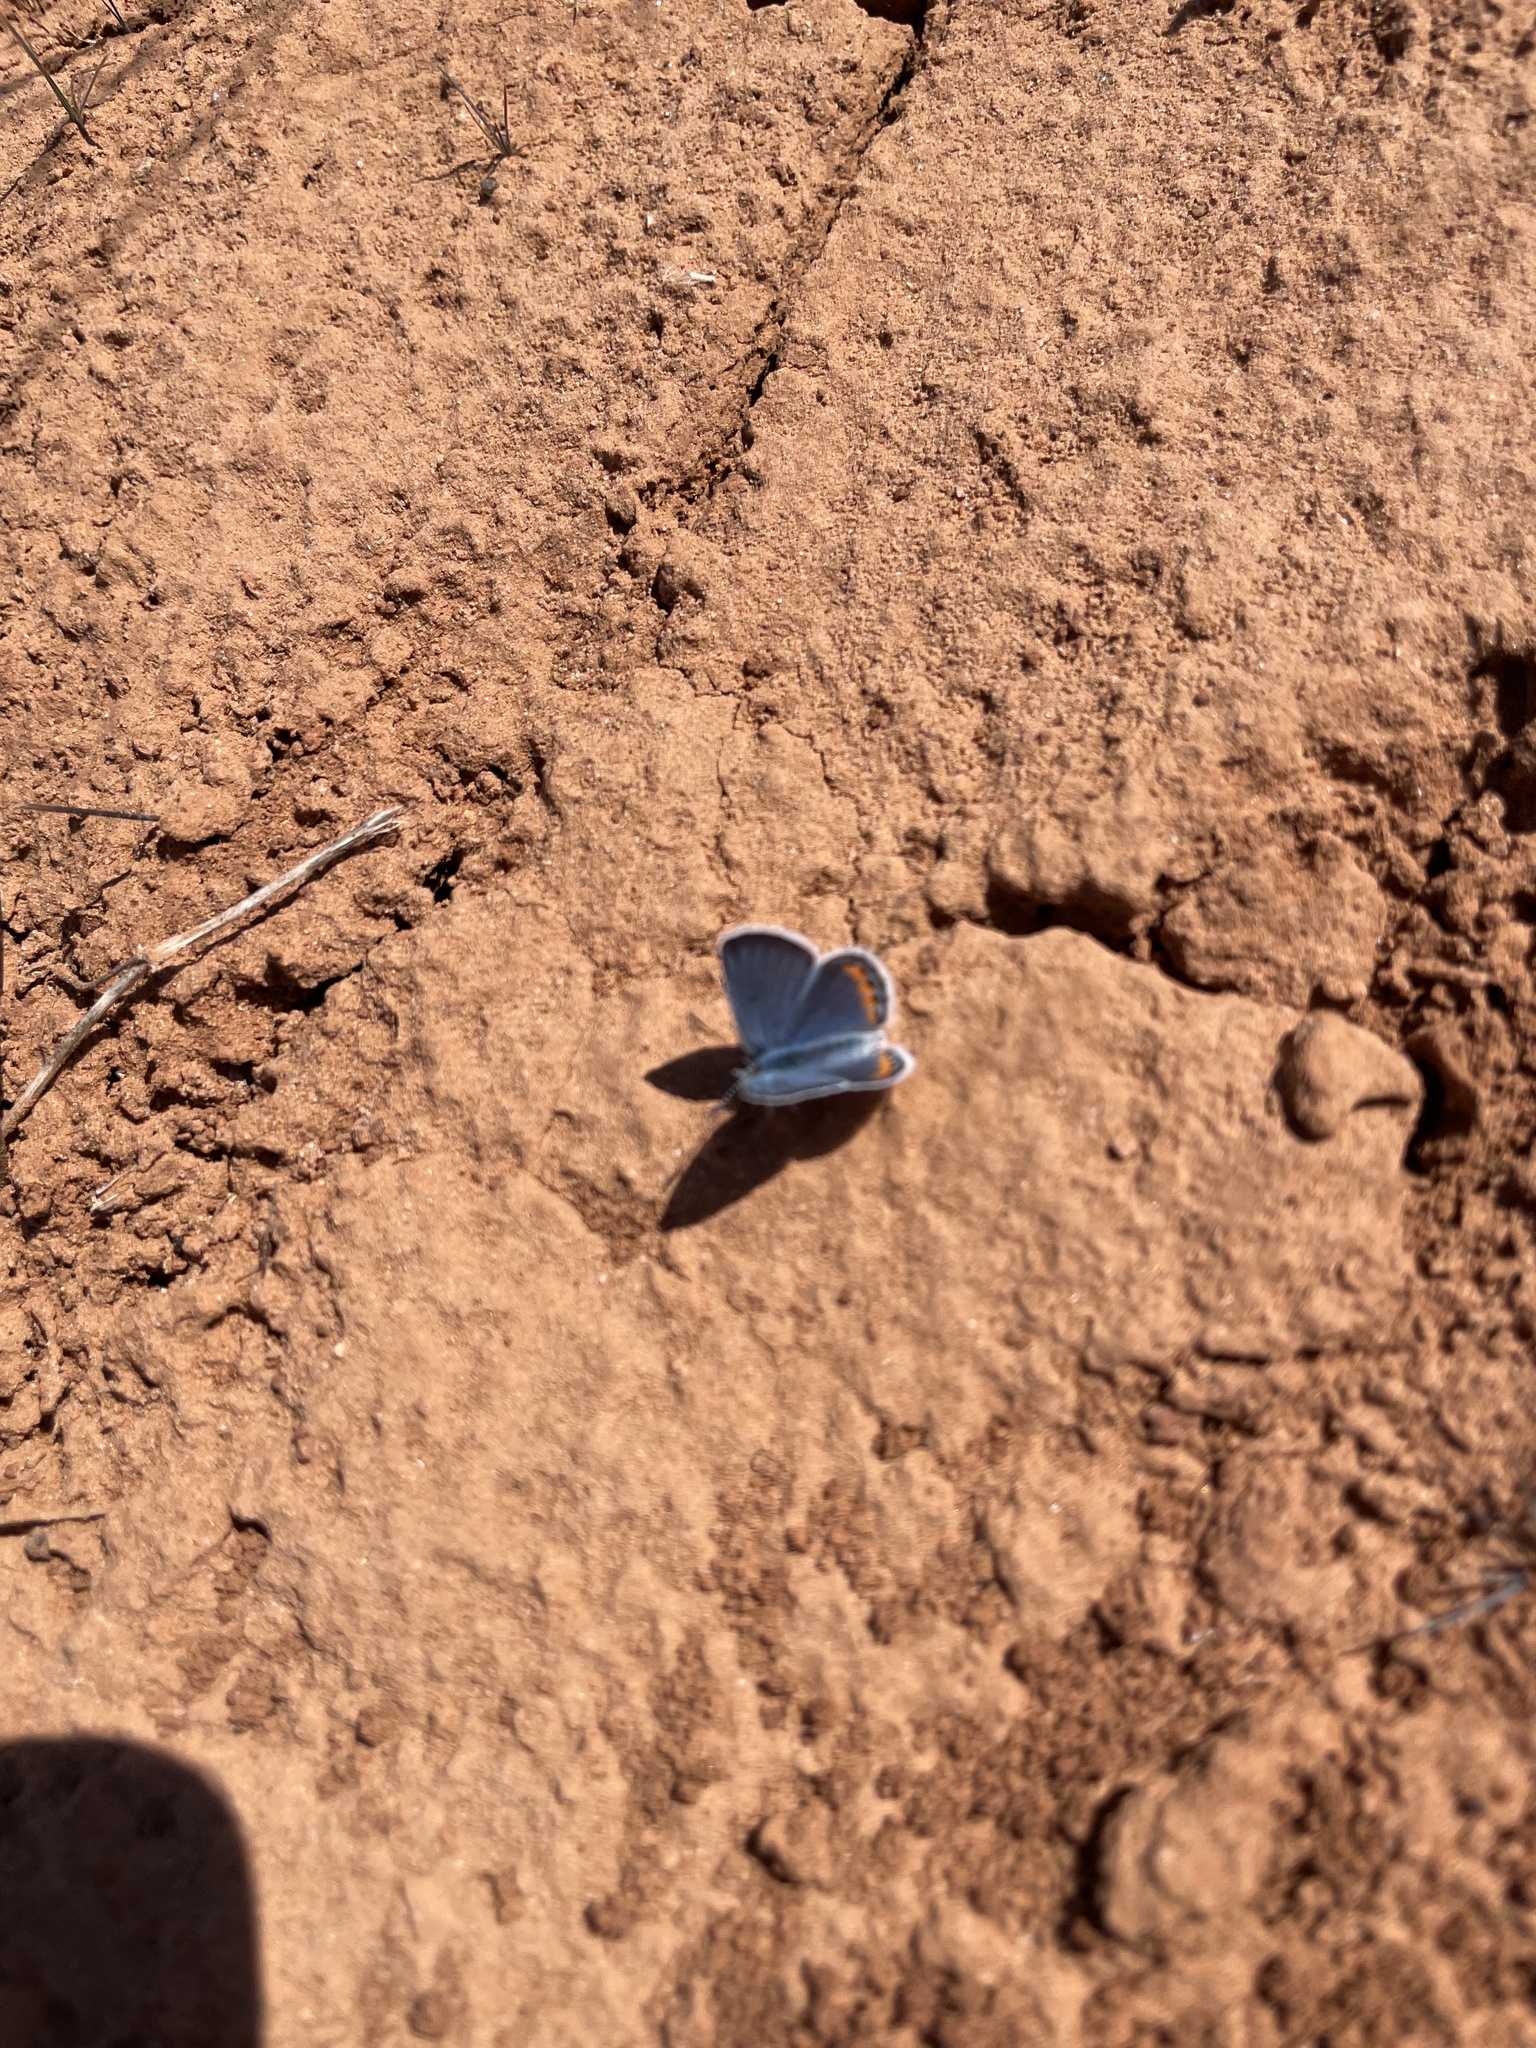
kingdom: Animalia
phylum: Arthropoda
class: Insecta
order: Lepidoptera
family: Lycaenidae
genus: Icaricia
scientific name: Icaricia lupini
